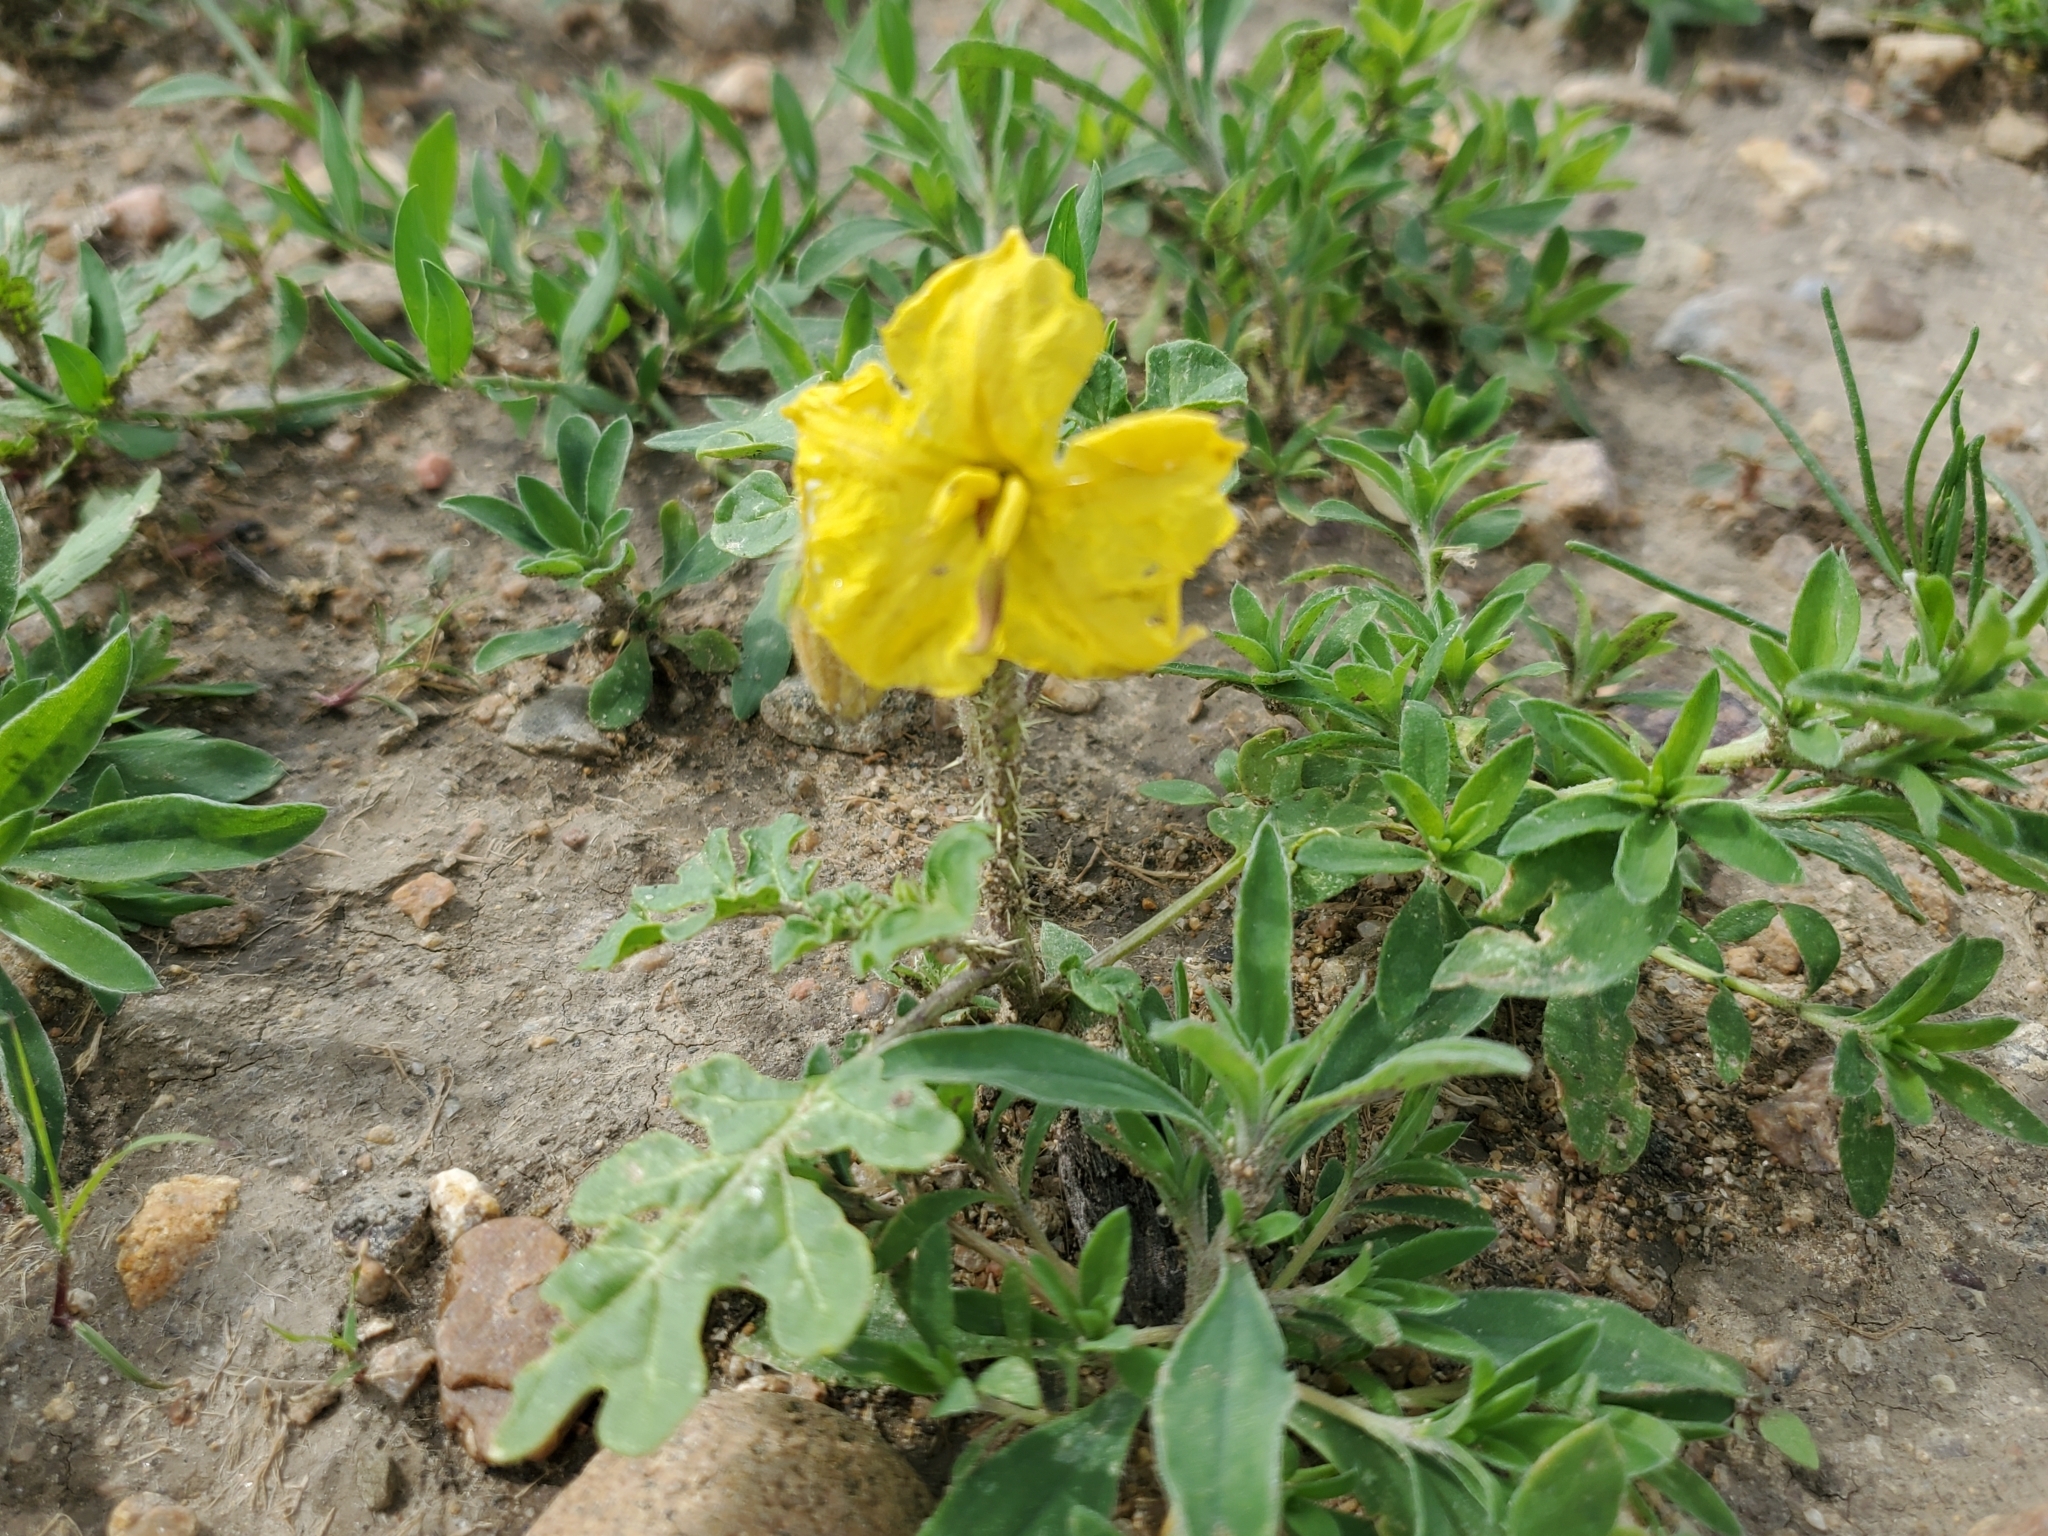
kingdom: Plantae
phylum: Tracheophyta
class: Magnoliopsida
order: Solanales
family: Solanaceae
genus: Solanum
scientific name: Solanum angustifolium
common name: Buffalobur nightshade
